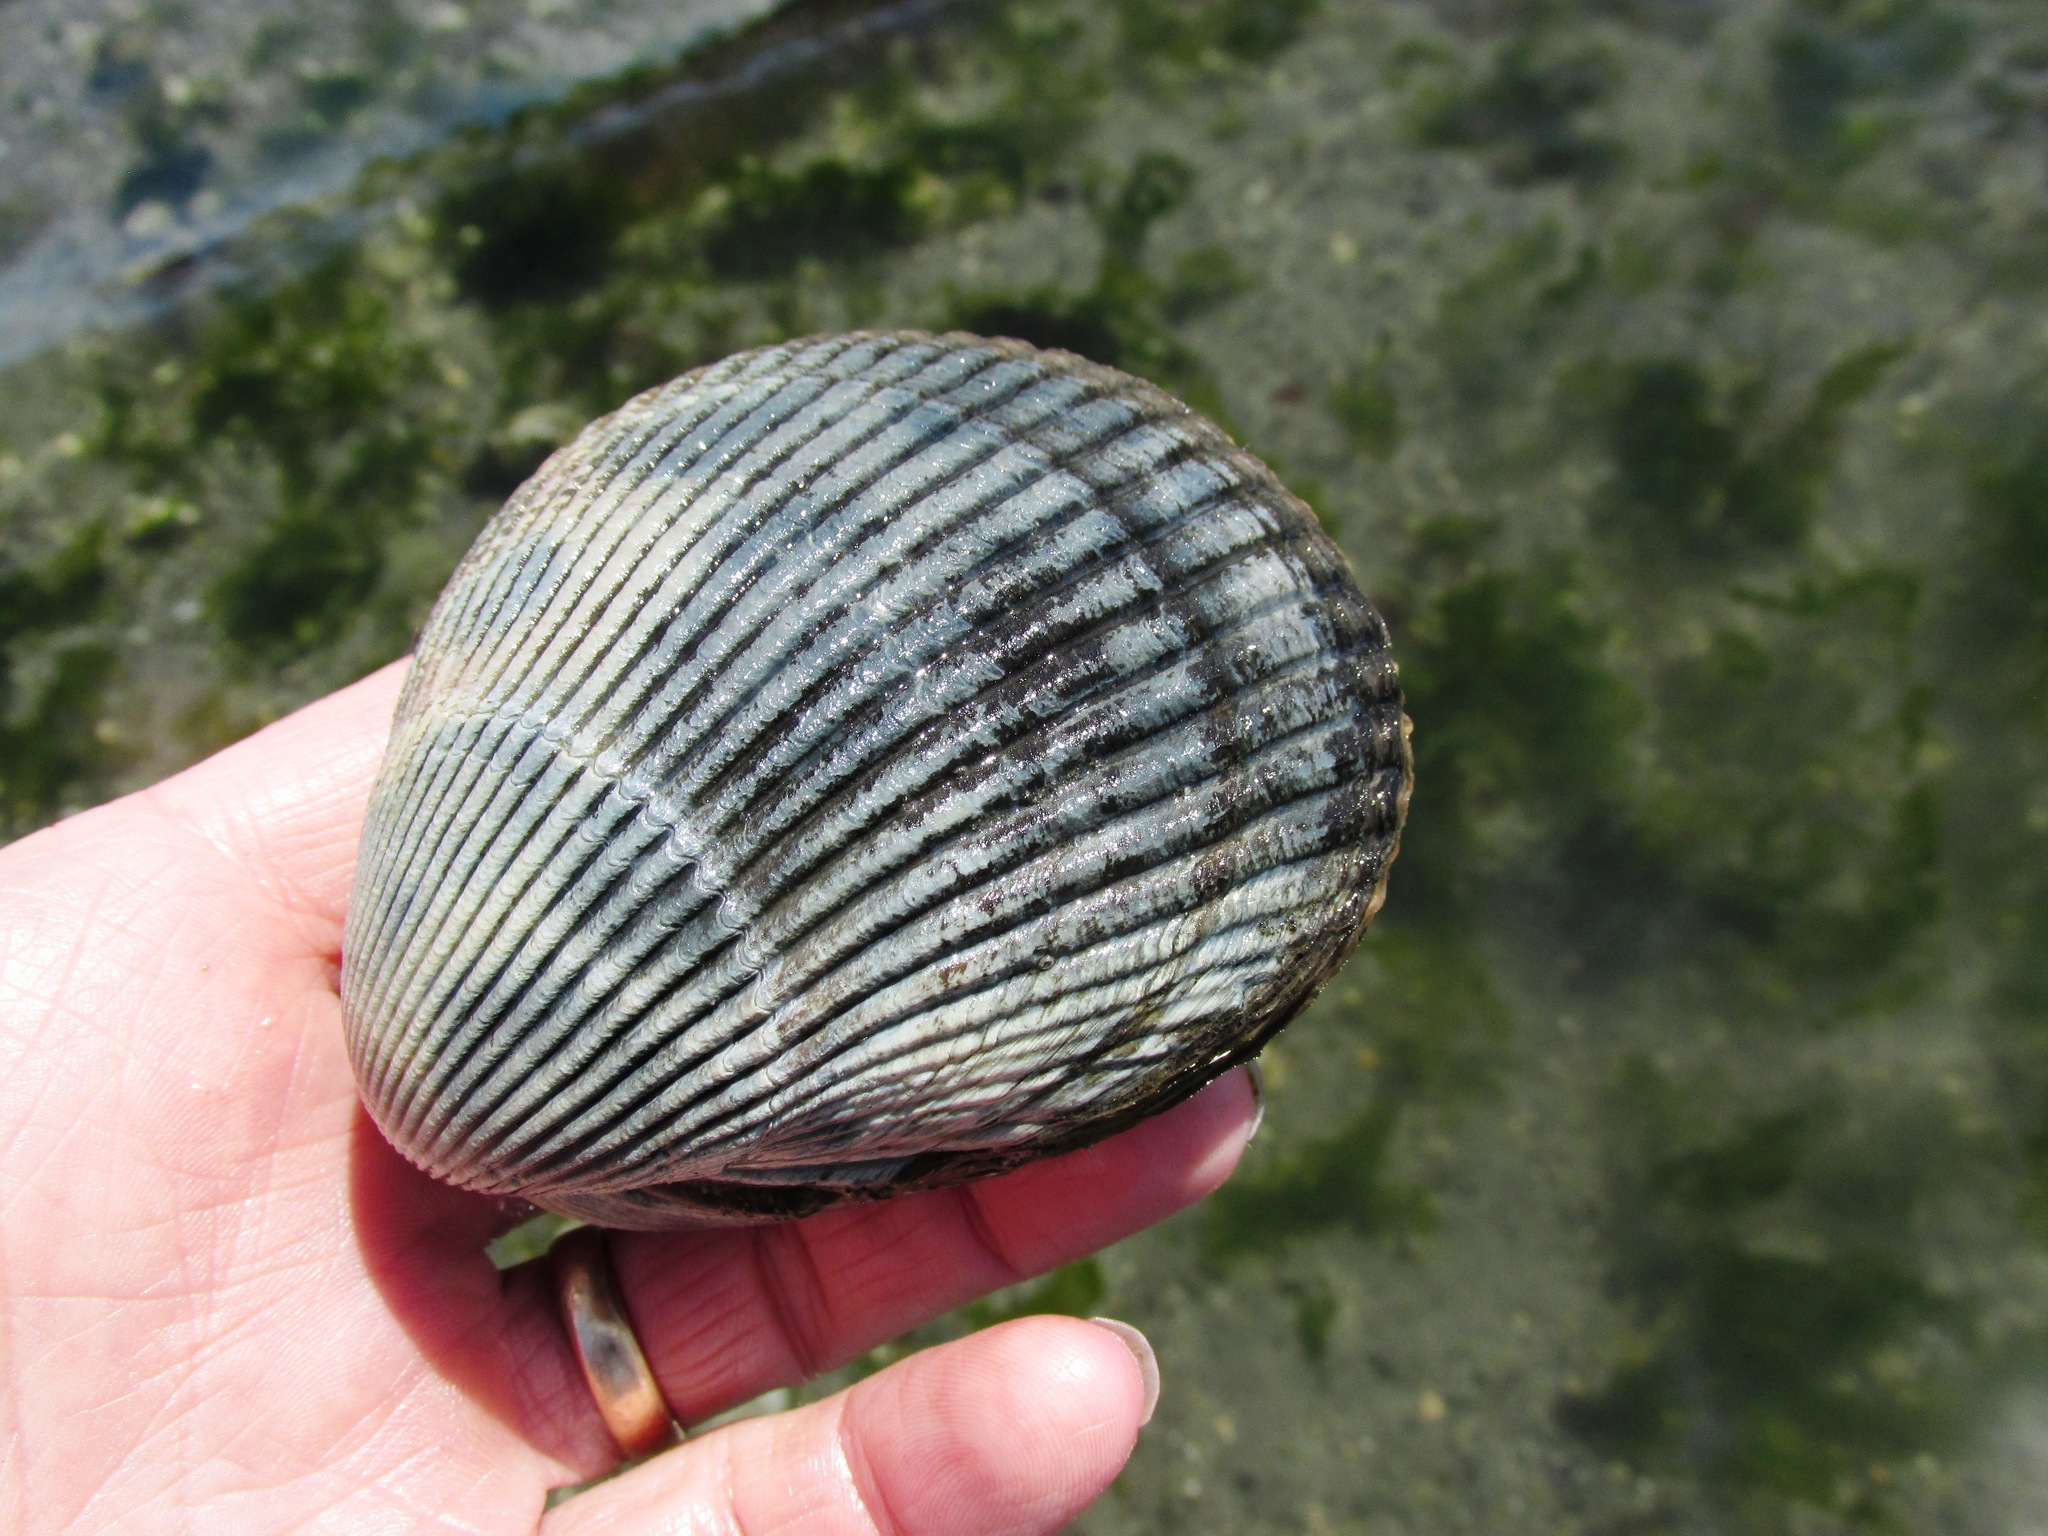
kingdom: Animalia
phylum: Mollusca
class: Bivalvia
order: Cardiida
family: Cardiidae
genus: Clinocardium
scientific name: Clinocardium nuttallii
